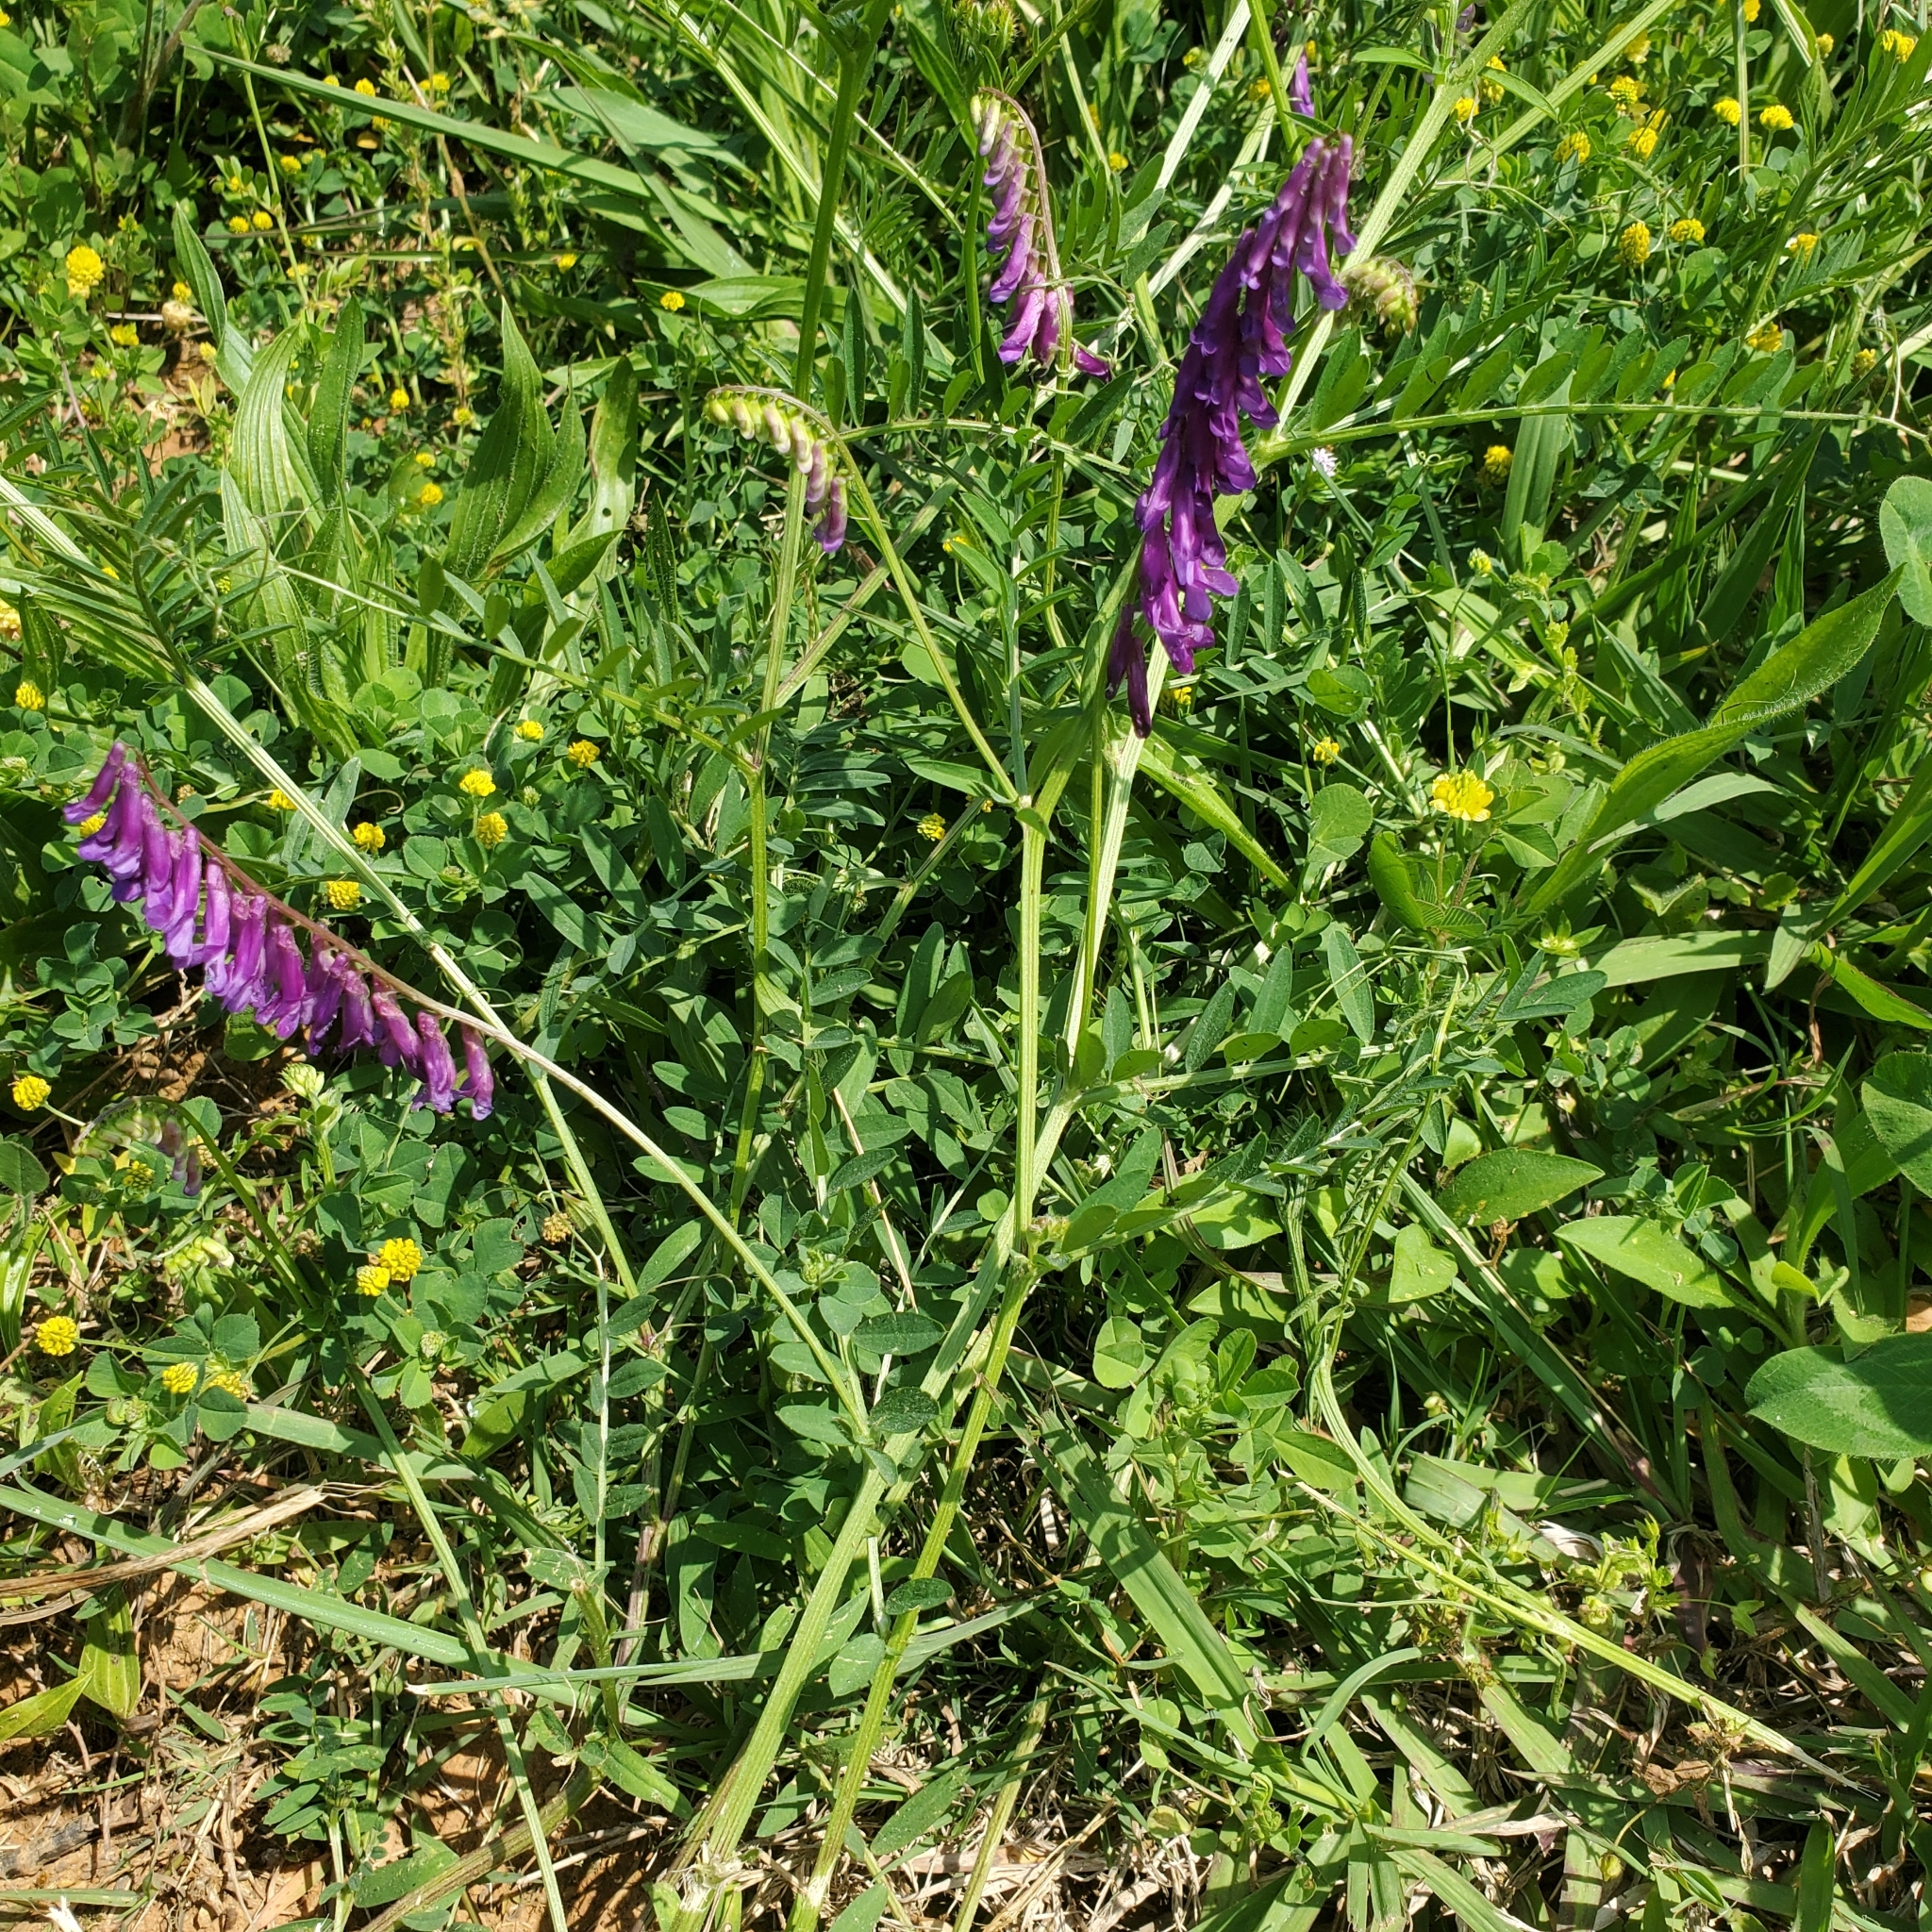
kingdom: Plantae
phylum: Tracheophyta
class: Magnoliopsida
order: Fabales
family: Fabaceae
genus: Vicia
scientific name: Vicia villosa
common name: Fodder vetch
